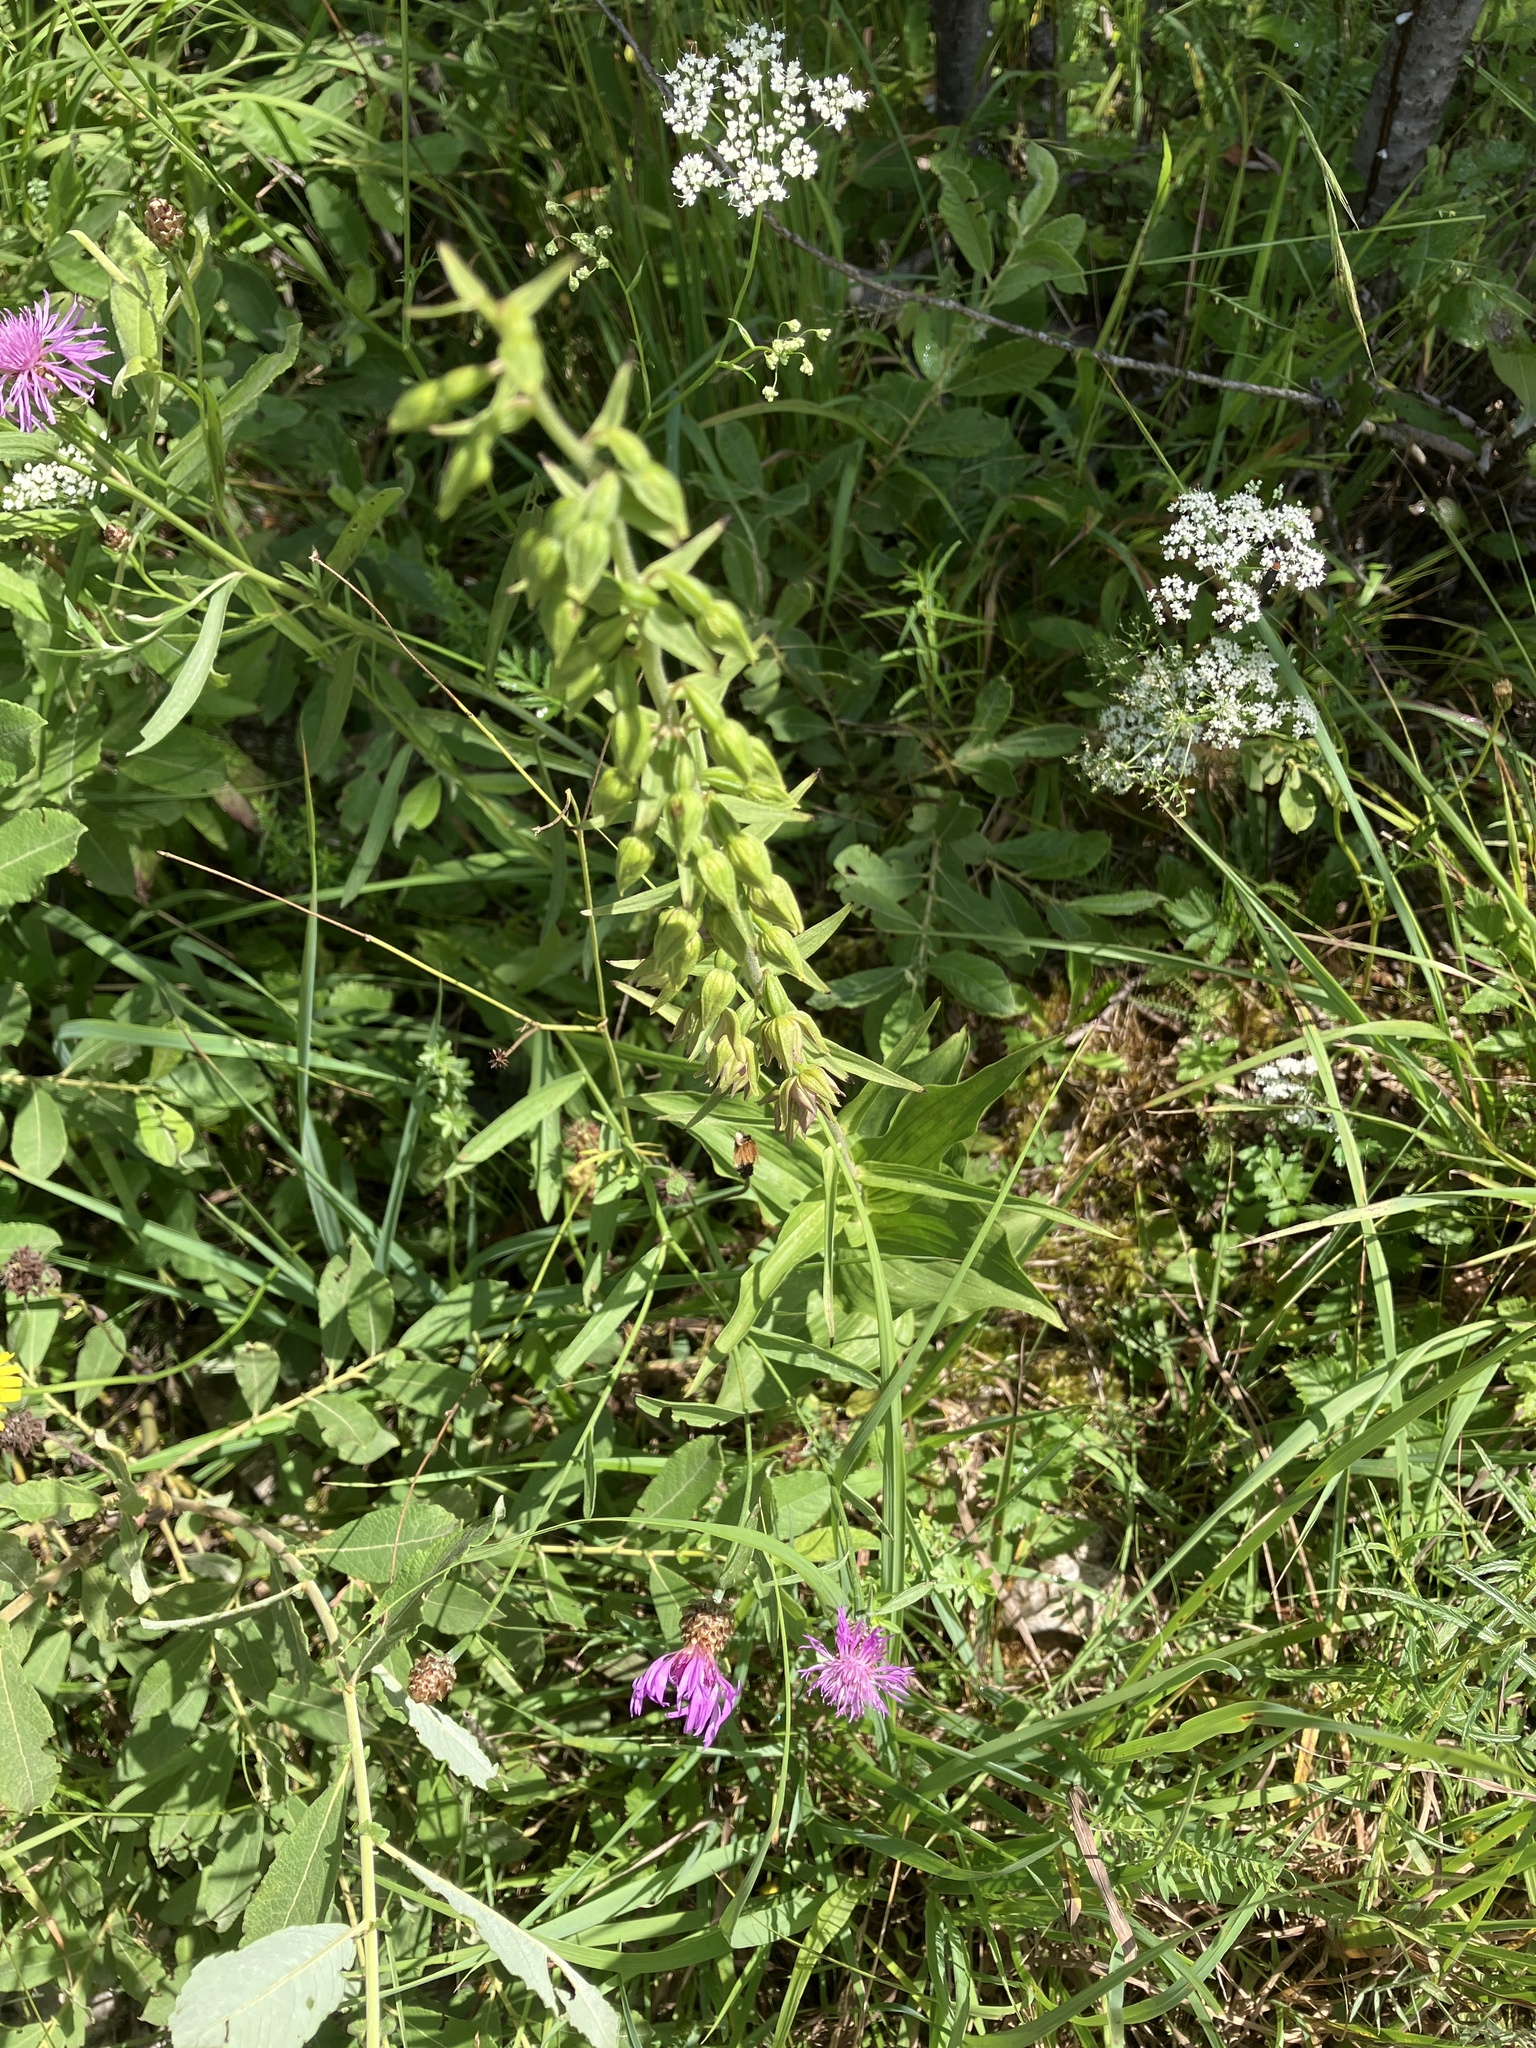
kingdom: Plantae
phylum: Tracheophyta
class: Liliopsida
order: Asparagales
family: Orchidaceae
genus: Epipactis
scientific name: Epipactis helleborine
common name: Broad-leaved helleborine
